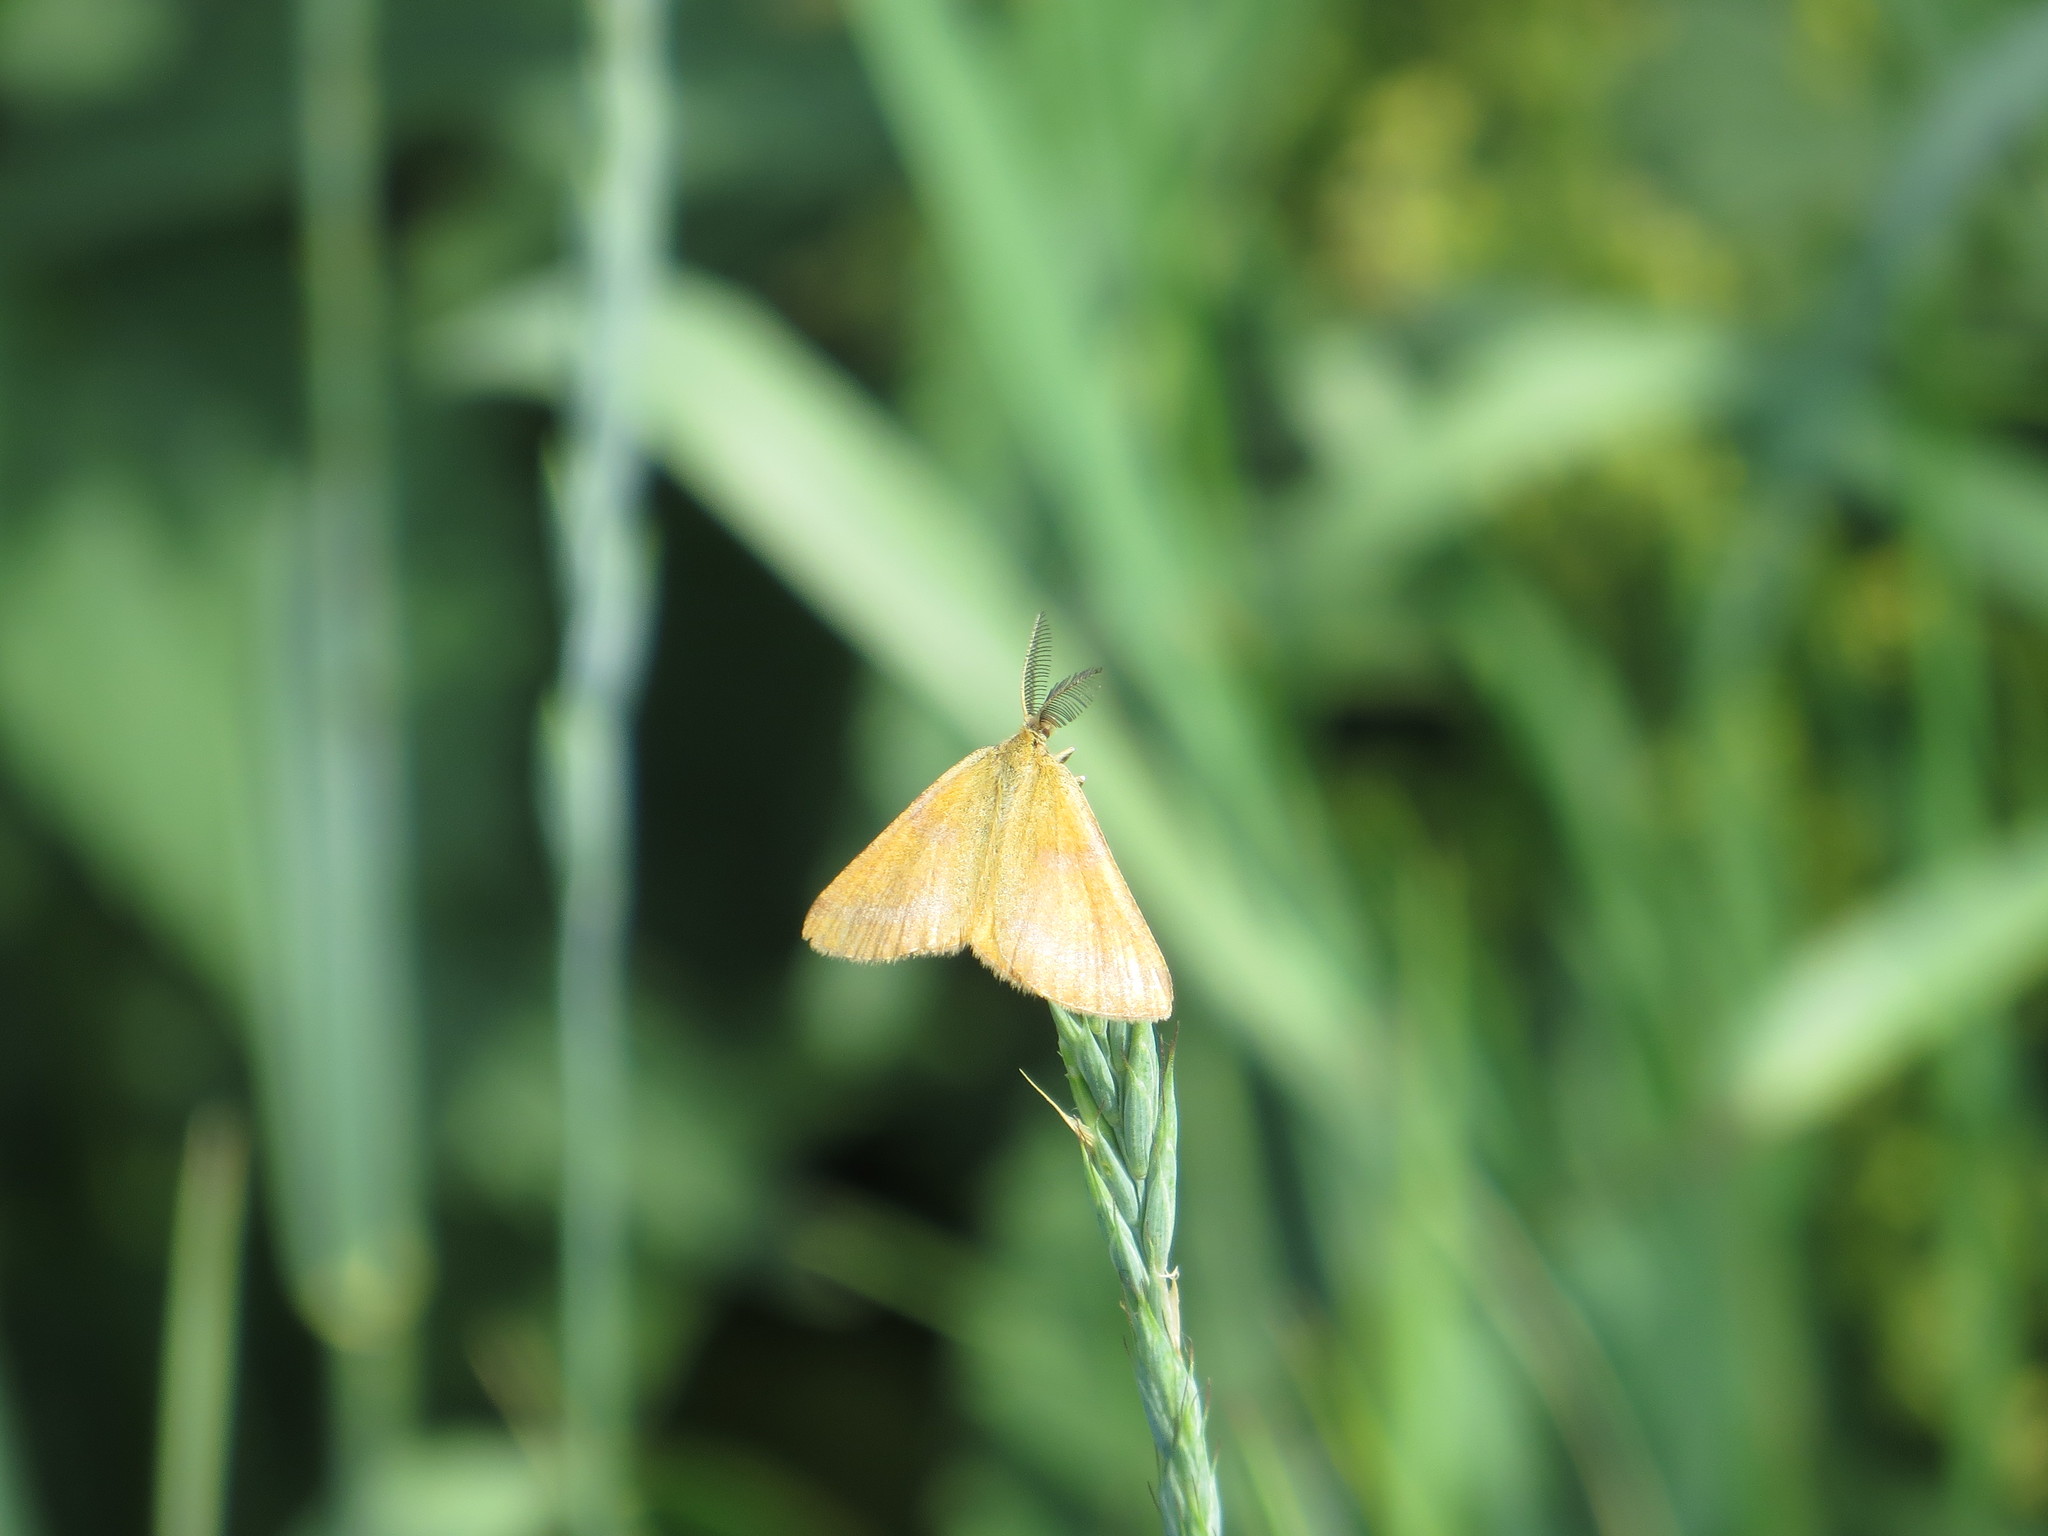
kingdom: Animalia
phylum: Arthropoda
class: Insecta
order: Lepidoptera
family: Geometridae
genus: Lythria
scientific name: Lythria purpuraria
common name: Purple-barred yellow
